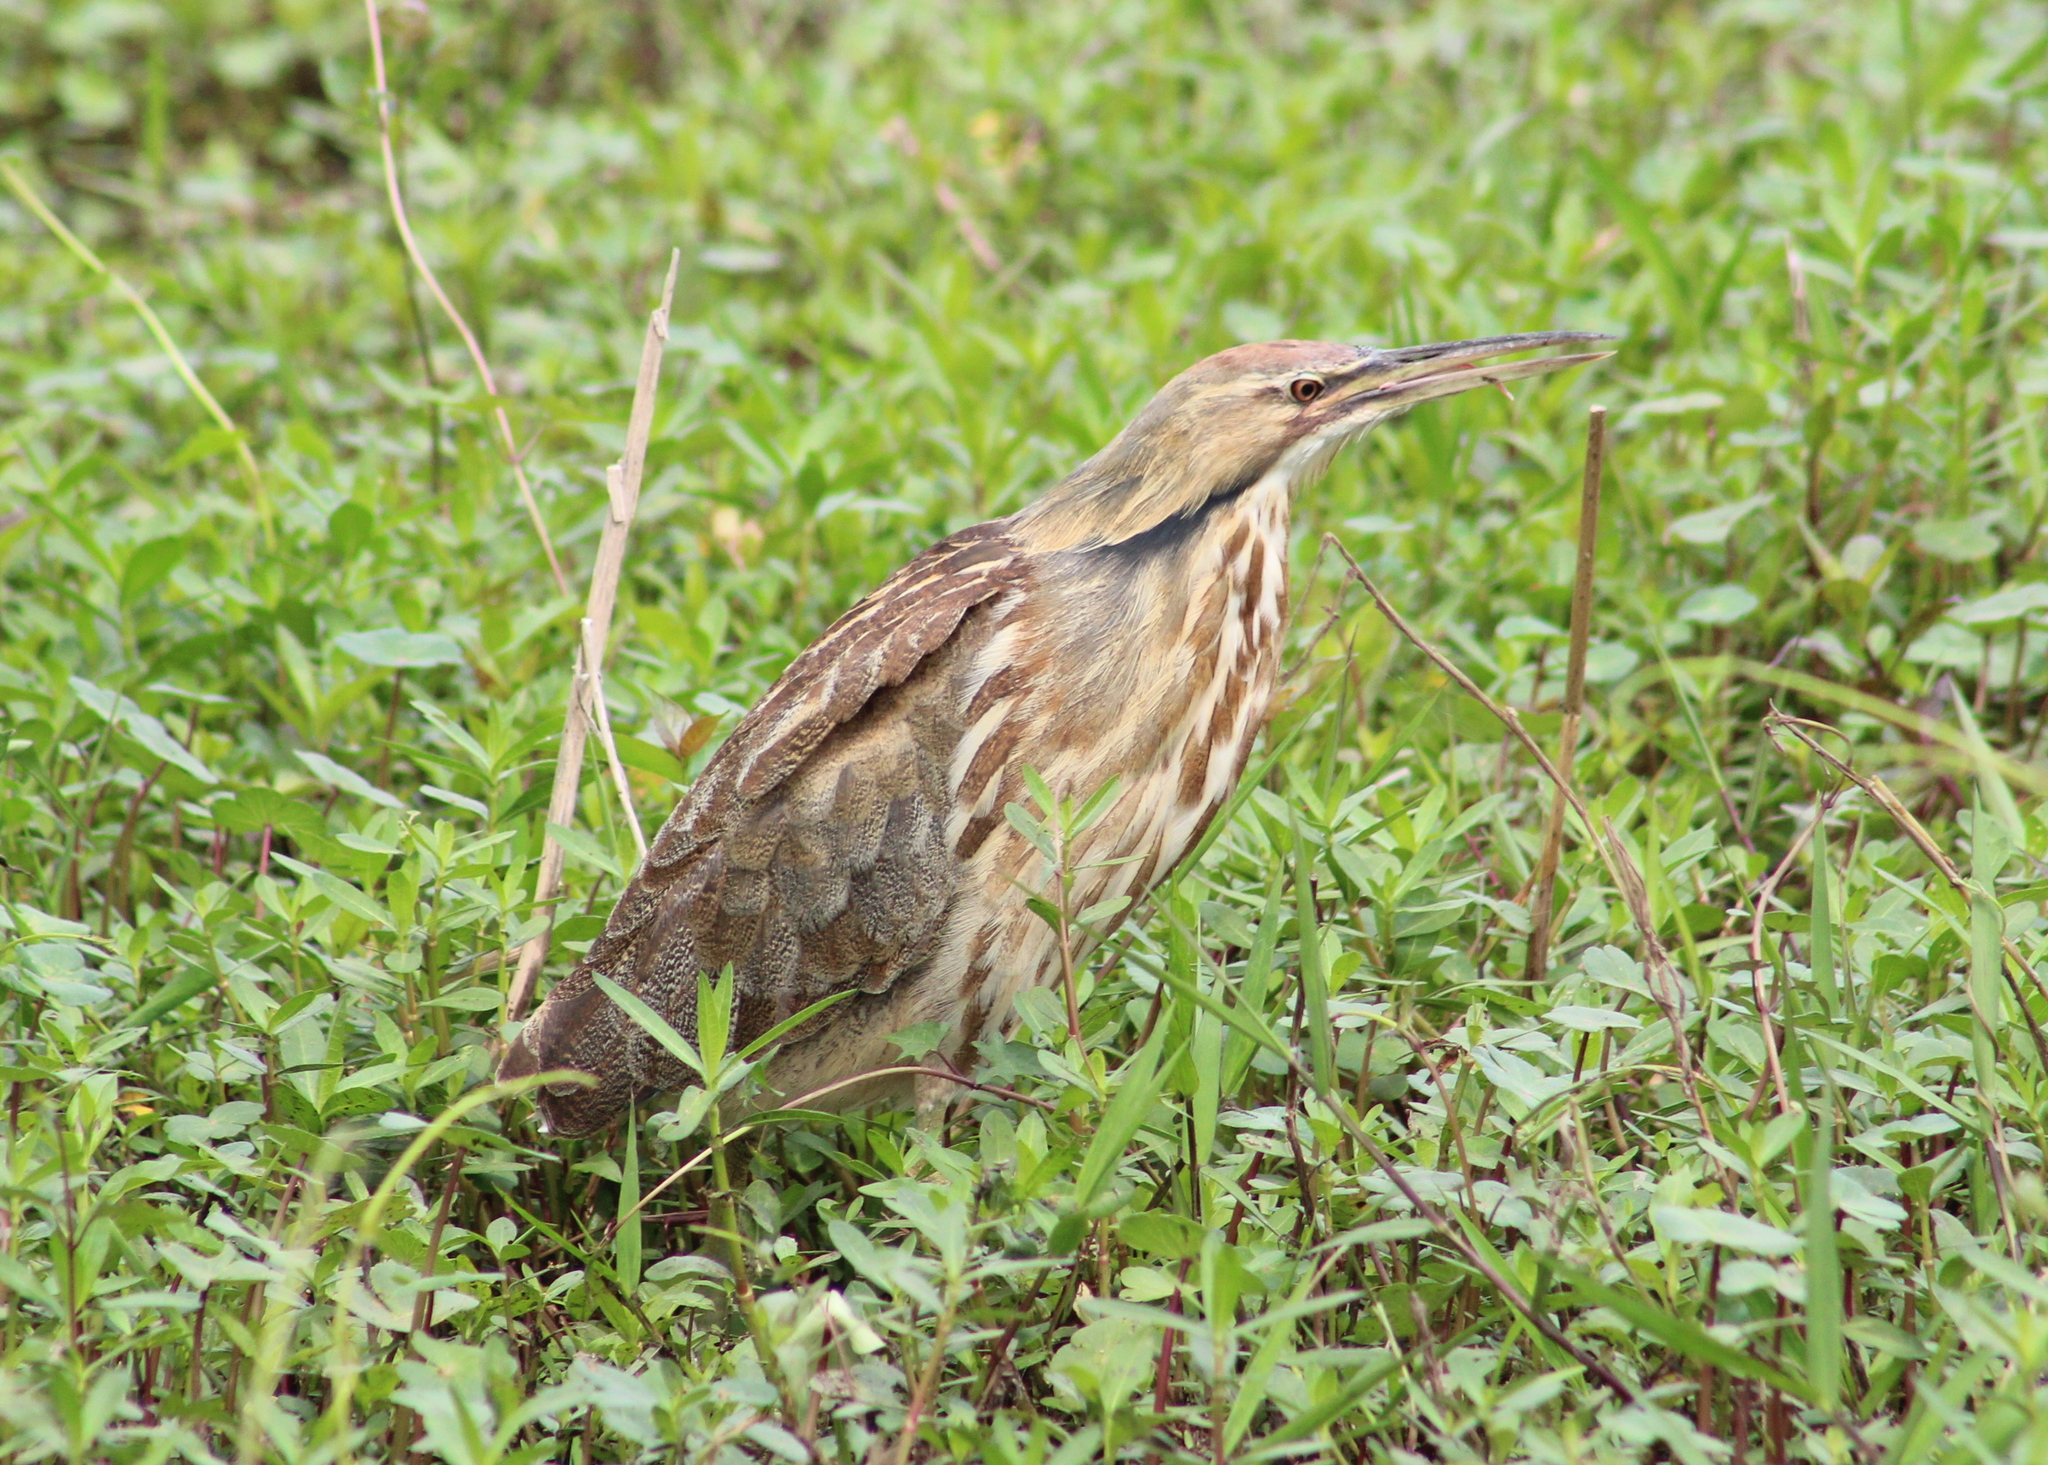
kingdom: Animalia
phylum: Chordata
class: Aves
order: Pelecaniformes
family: Ardeidae
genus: Botaurus
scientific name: Botaurus lentiginosus
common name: American bittern
